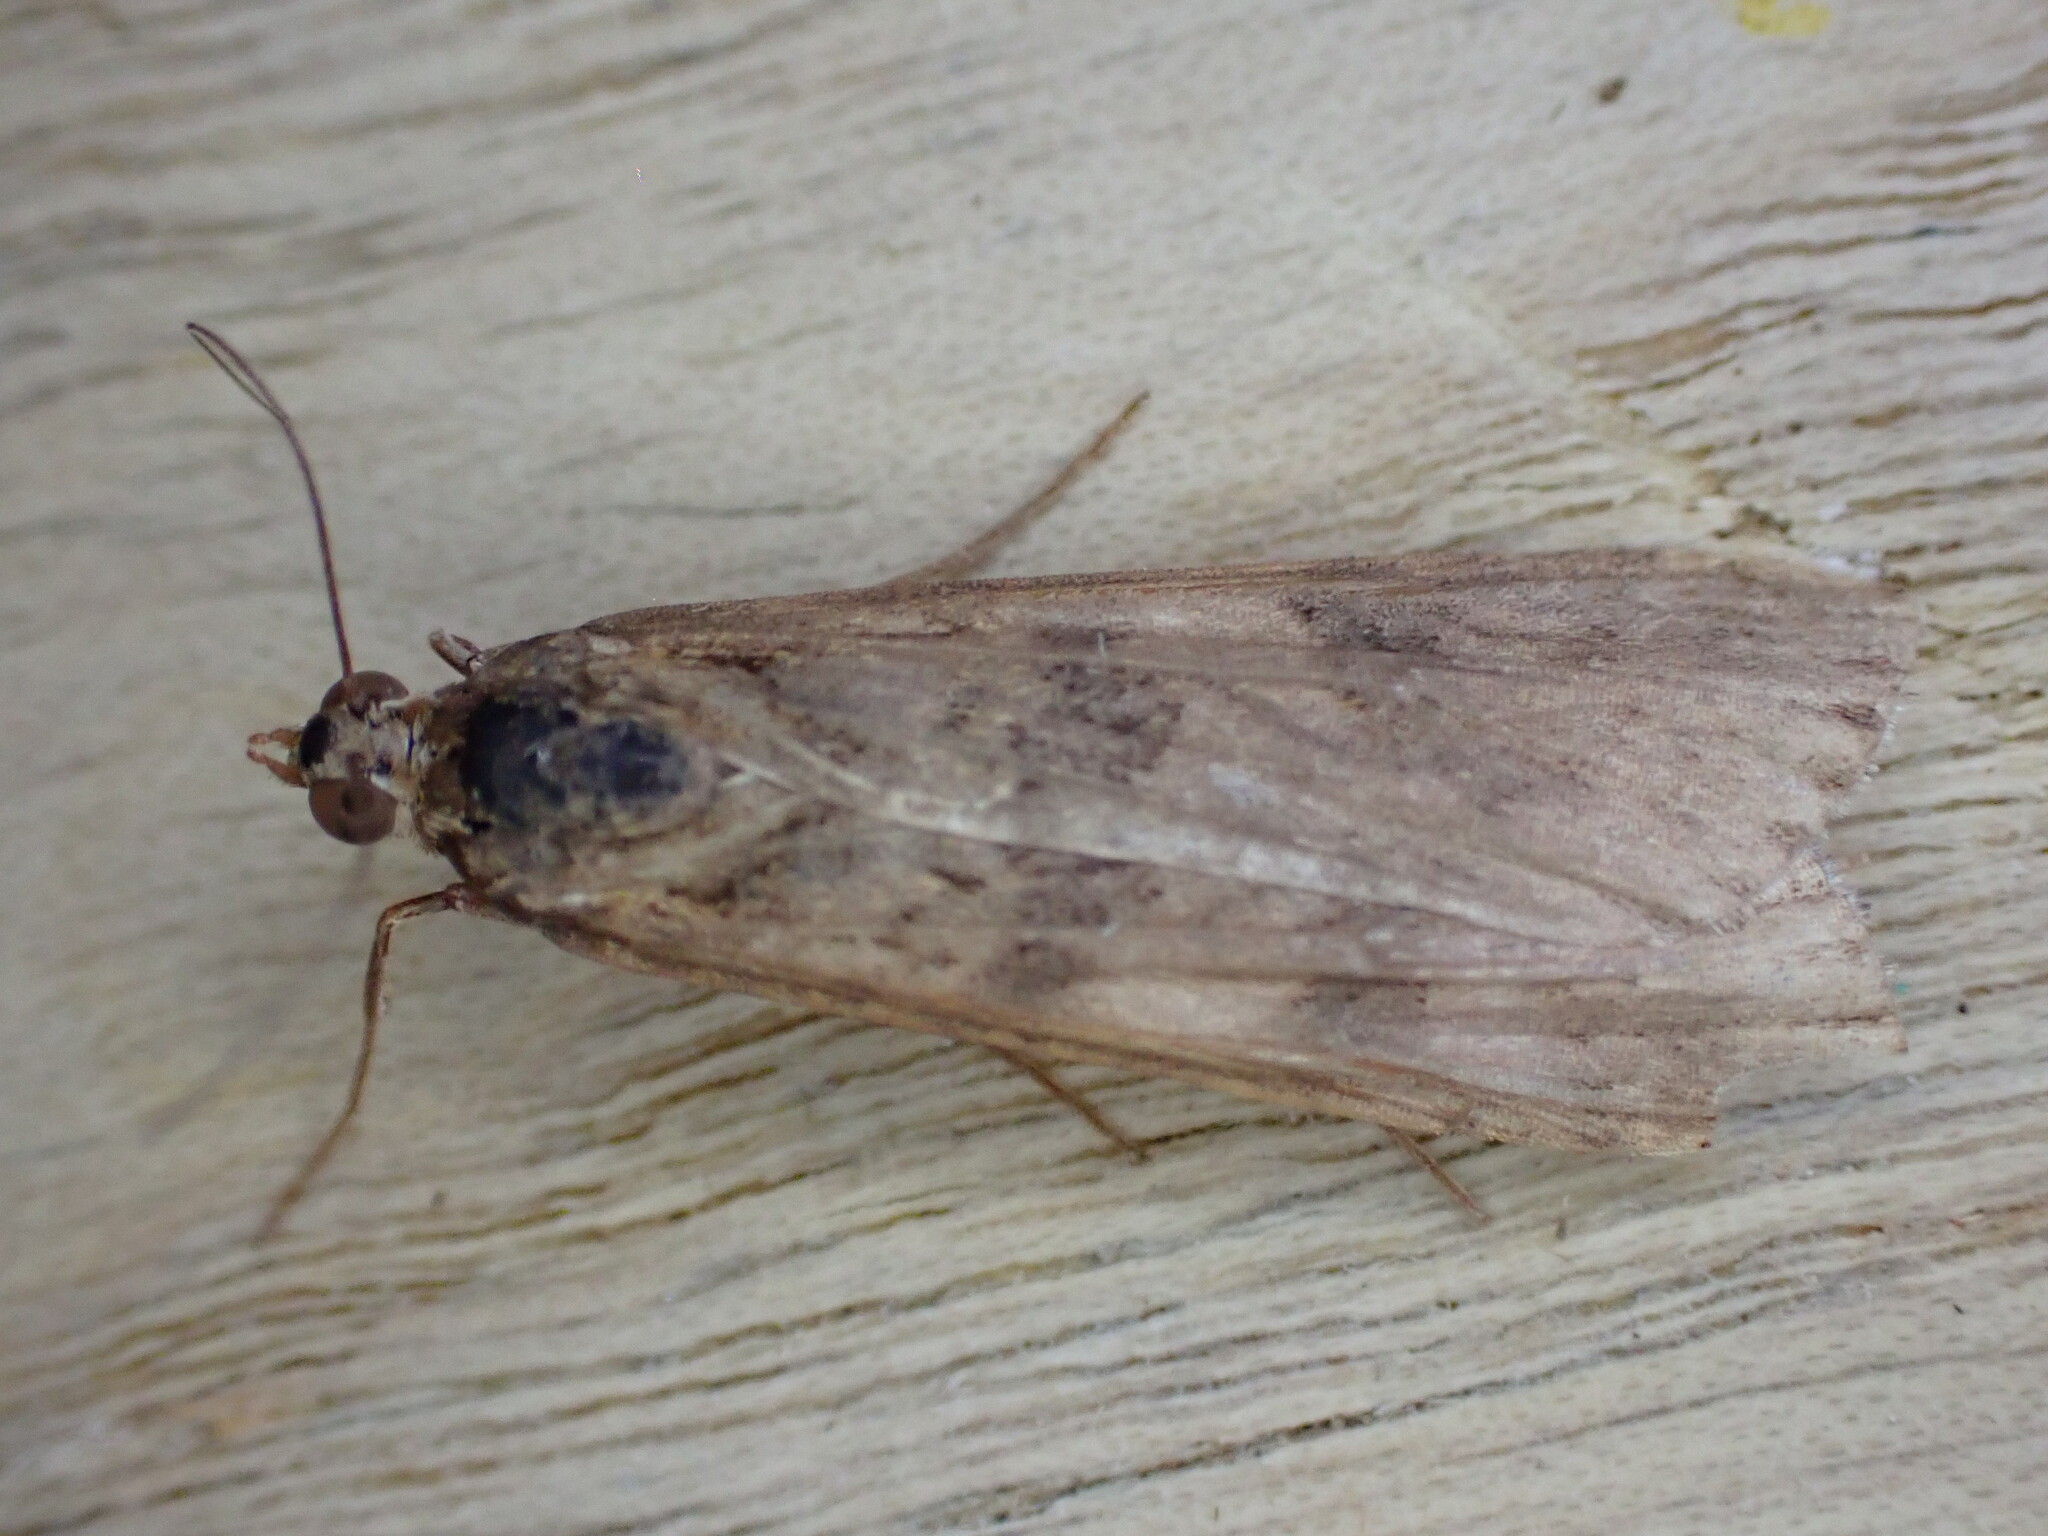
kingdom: Animalia
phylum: Arthropoda
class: Insecta
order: Lepidoptera
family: Crambidae
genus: Nomophila
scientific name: Nomophila noctuella
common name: Rush veneer
